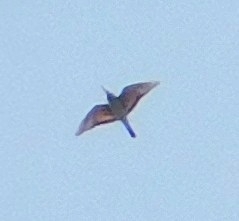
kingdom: Animalia
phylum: Chordata
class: Aves
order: Coraciiformes
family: Meropidae
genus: Merops
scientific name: Merops apiaster
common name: European bee-eater
